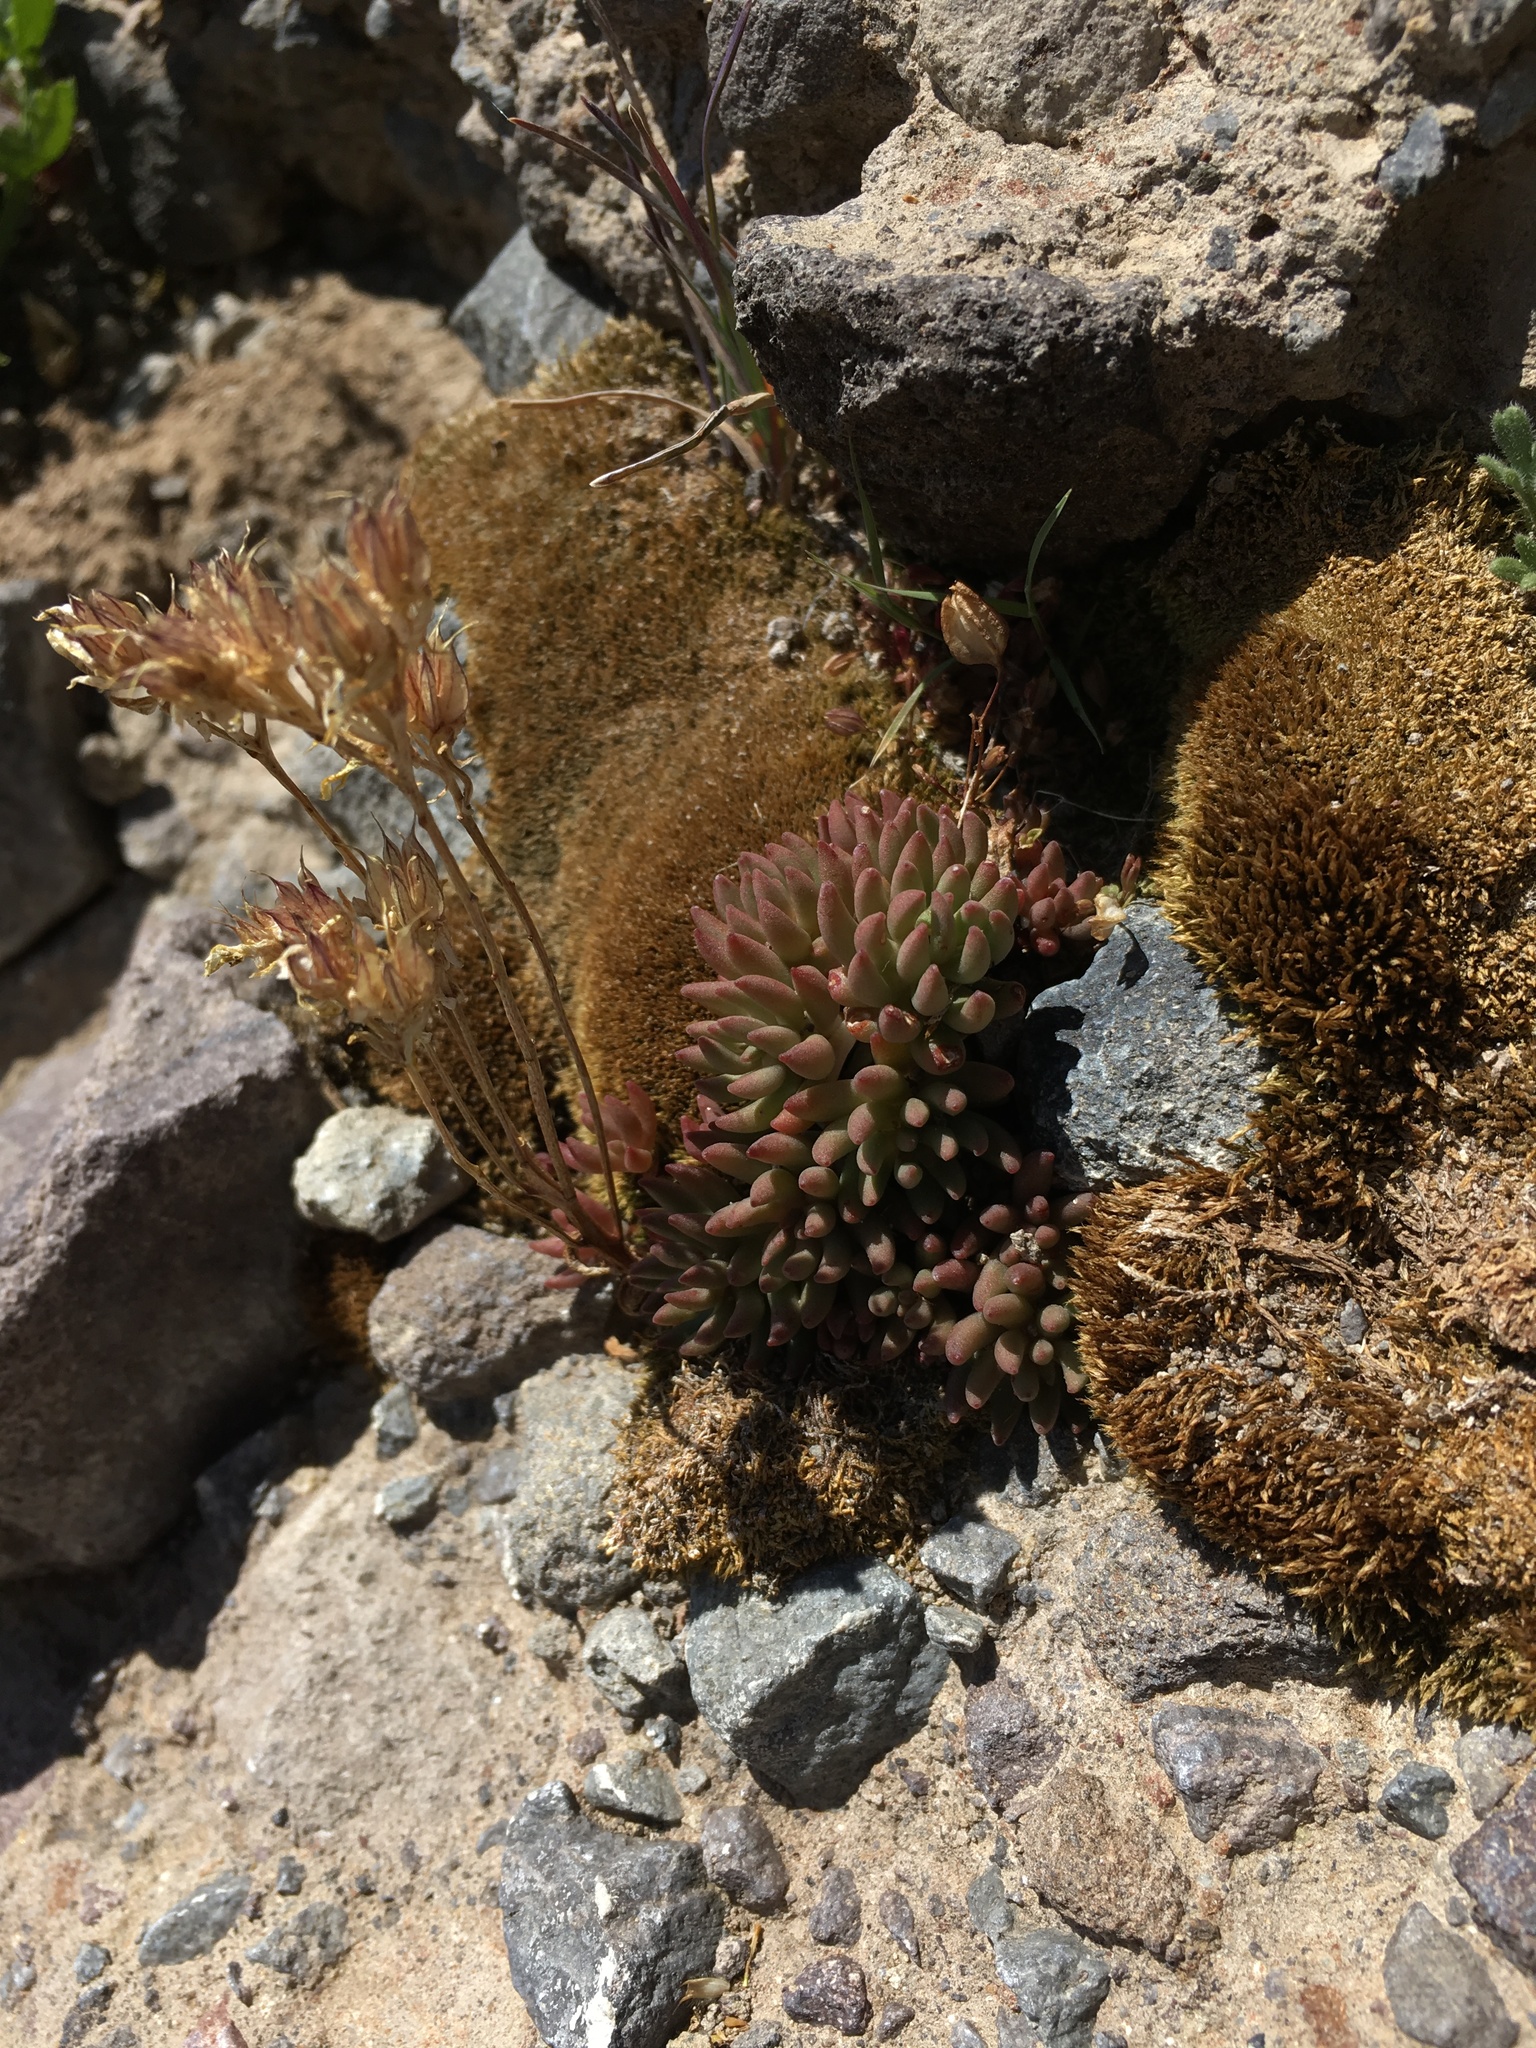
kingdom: Plantae
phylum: Tracheophyta
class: Magnoliopsida
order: Saxifragales
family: Crassulaceae
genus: Sedum
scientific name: Sedum lanceolatum
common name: Common stonecrop
